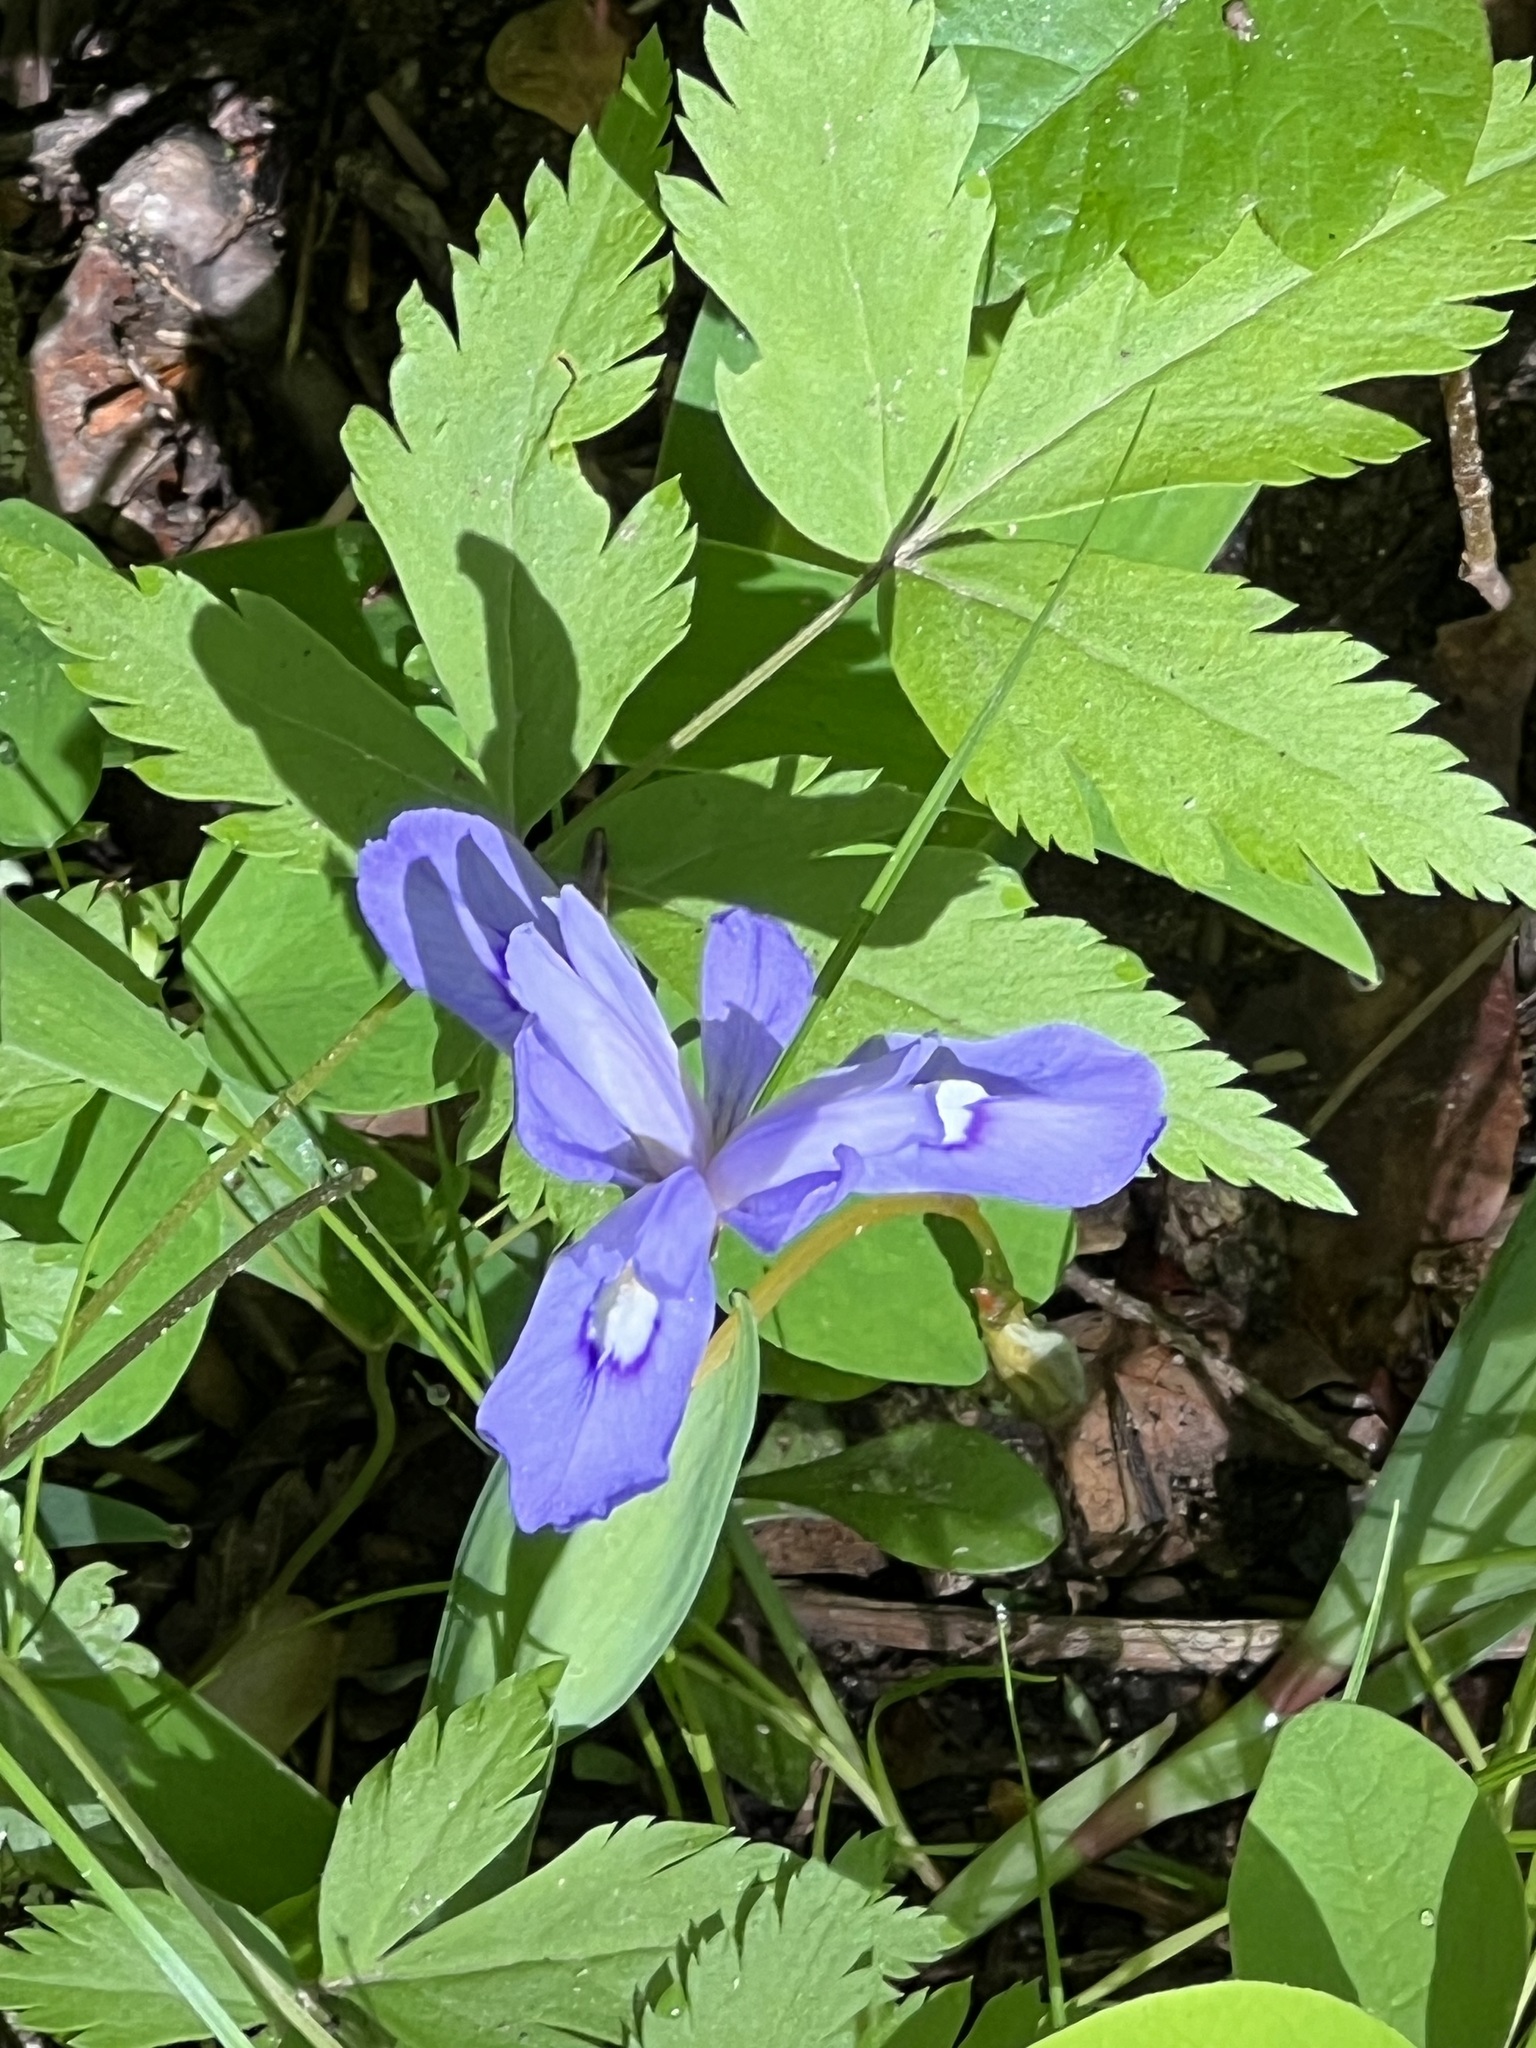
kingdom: Plantae
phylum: Tracheophyta
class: Liliopsida
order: Asparagales
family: Iridaceae
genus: Iris
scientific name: Iris cristata
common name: Crested iris
